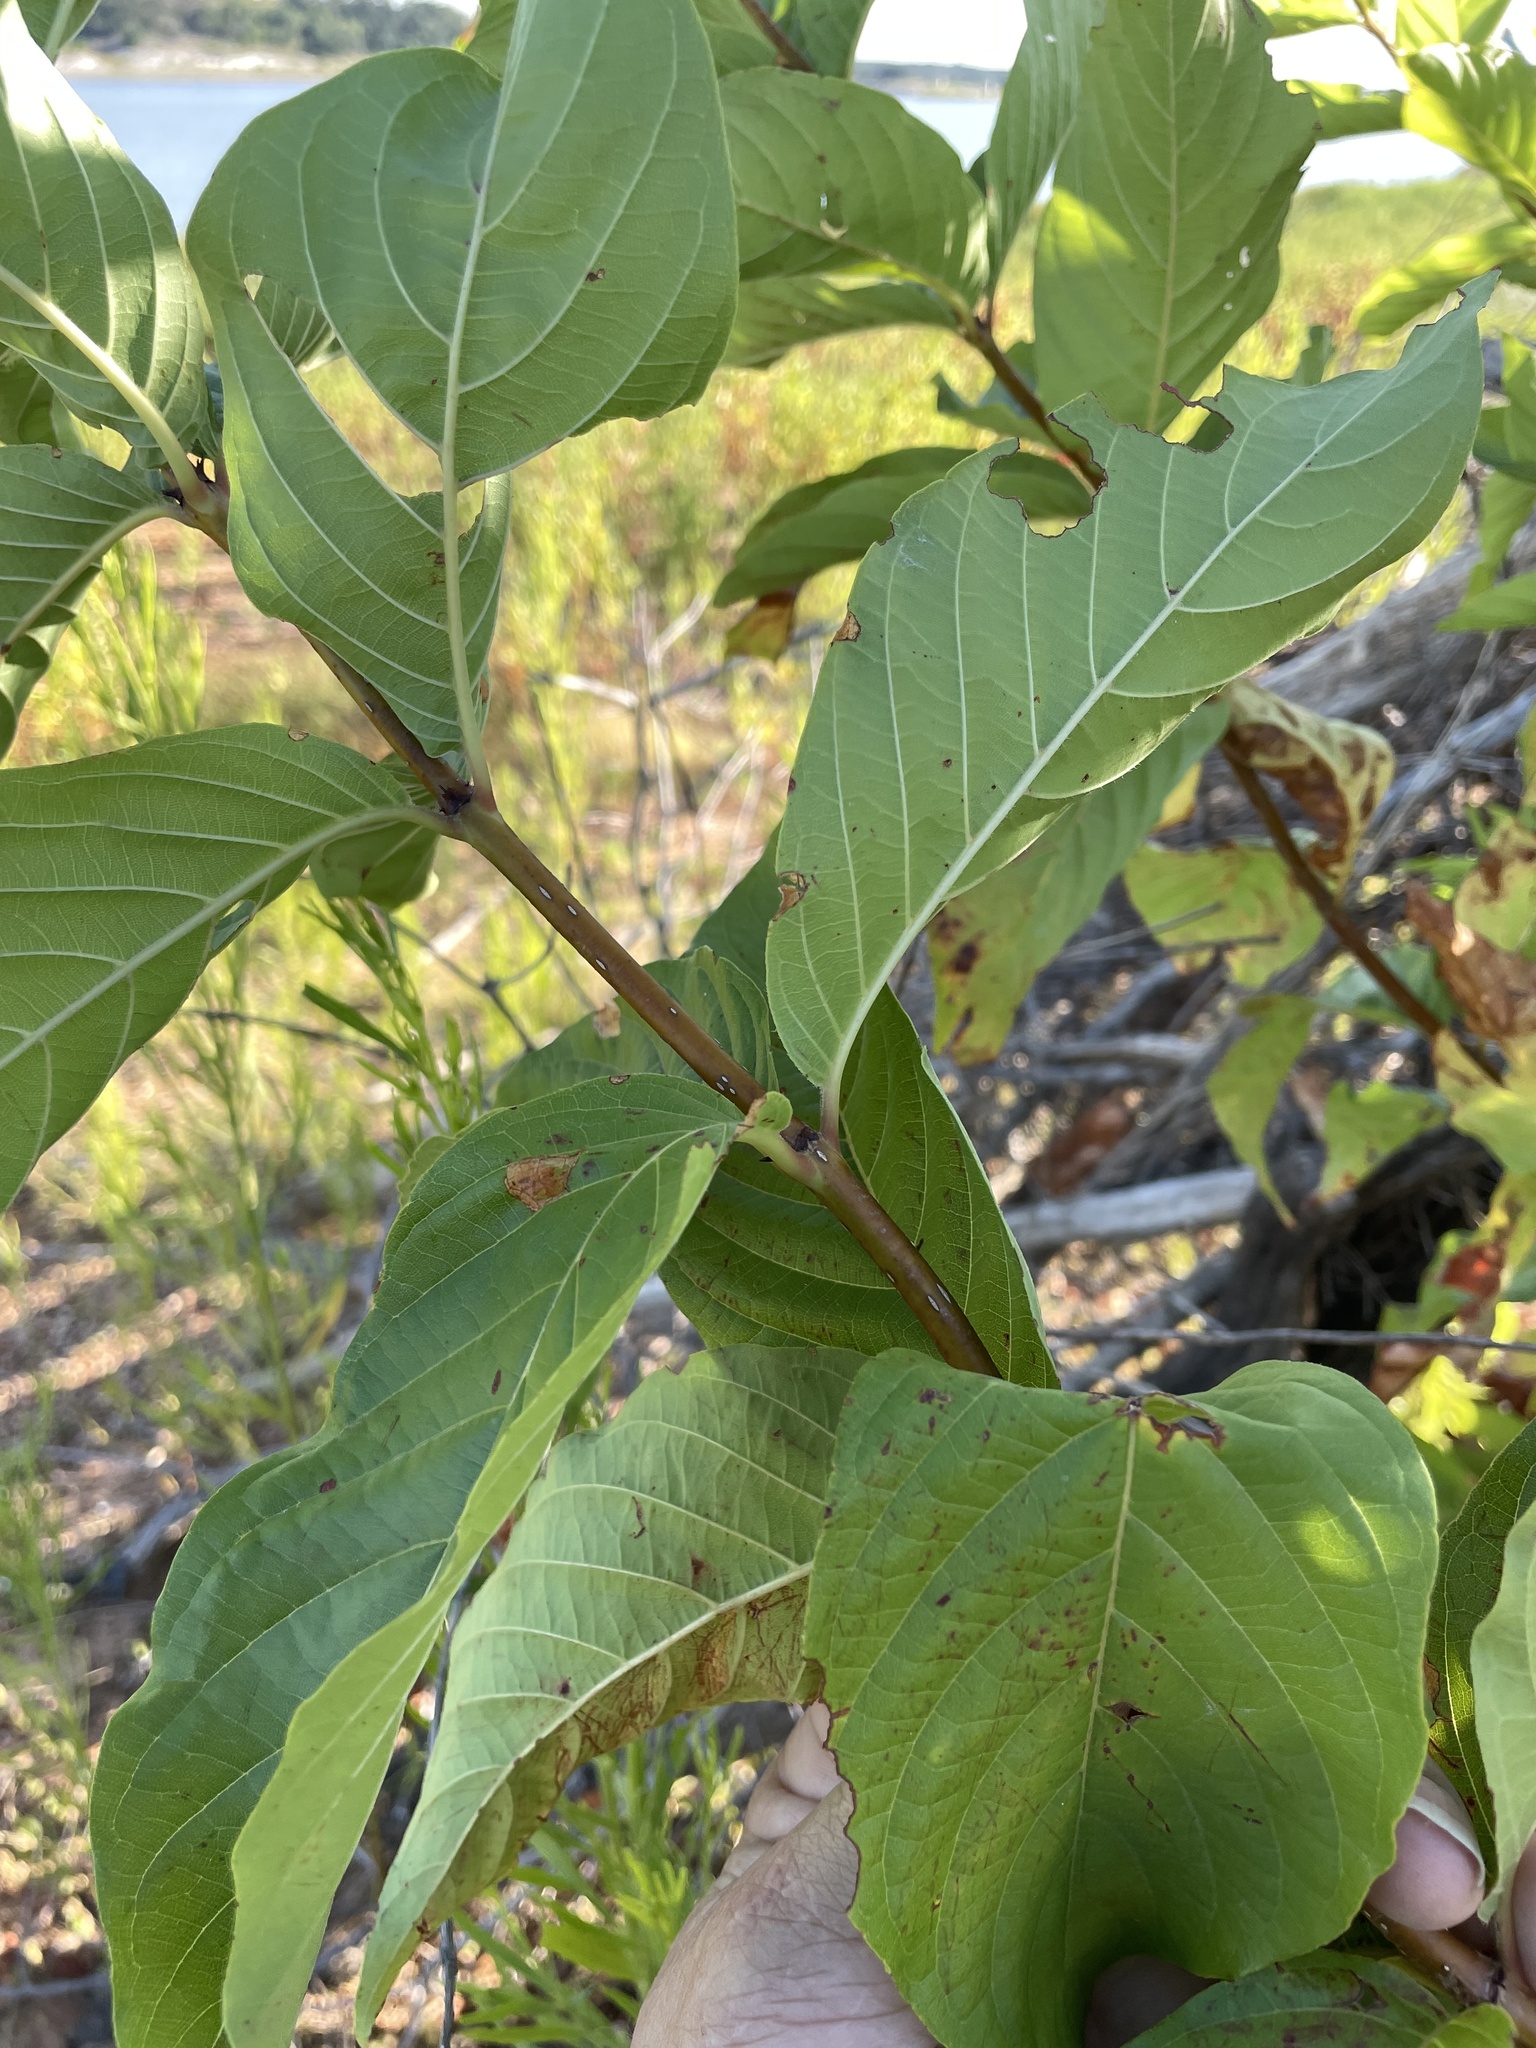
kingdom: Plantae
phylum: Tracheophyta
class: Magnoliopsida
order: Gentianales
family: Rubiaceae
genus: Cephalanthus
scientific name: Cephalanthus occidentalis
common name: Button-willow
